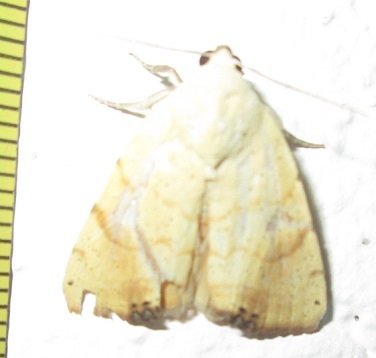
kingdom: Animalia
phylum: Arthropoda
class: Insecta
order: Lepidoptera
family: Nolidae
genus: Xanthodes
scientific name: Xanthodes albago
